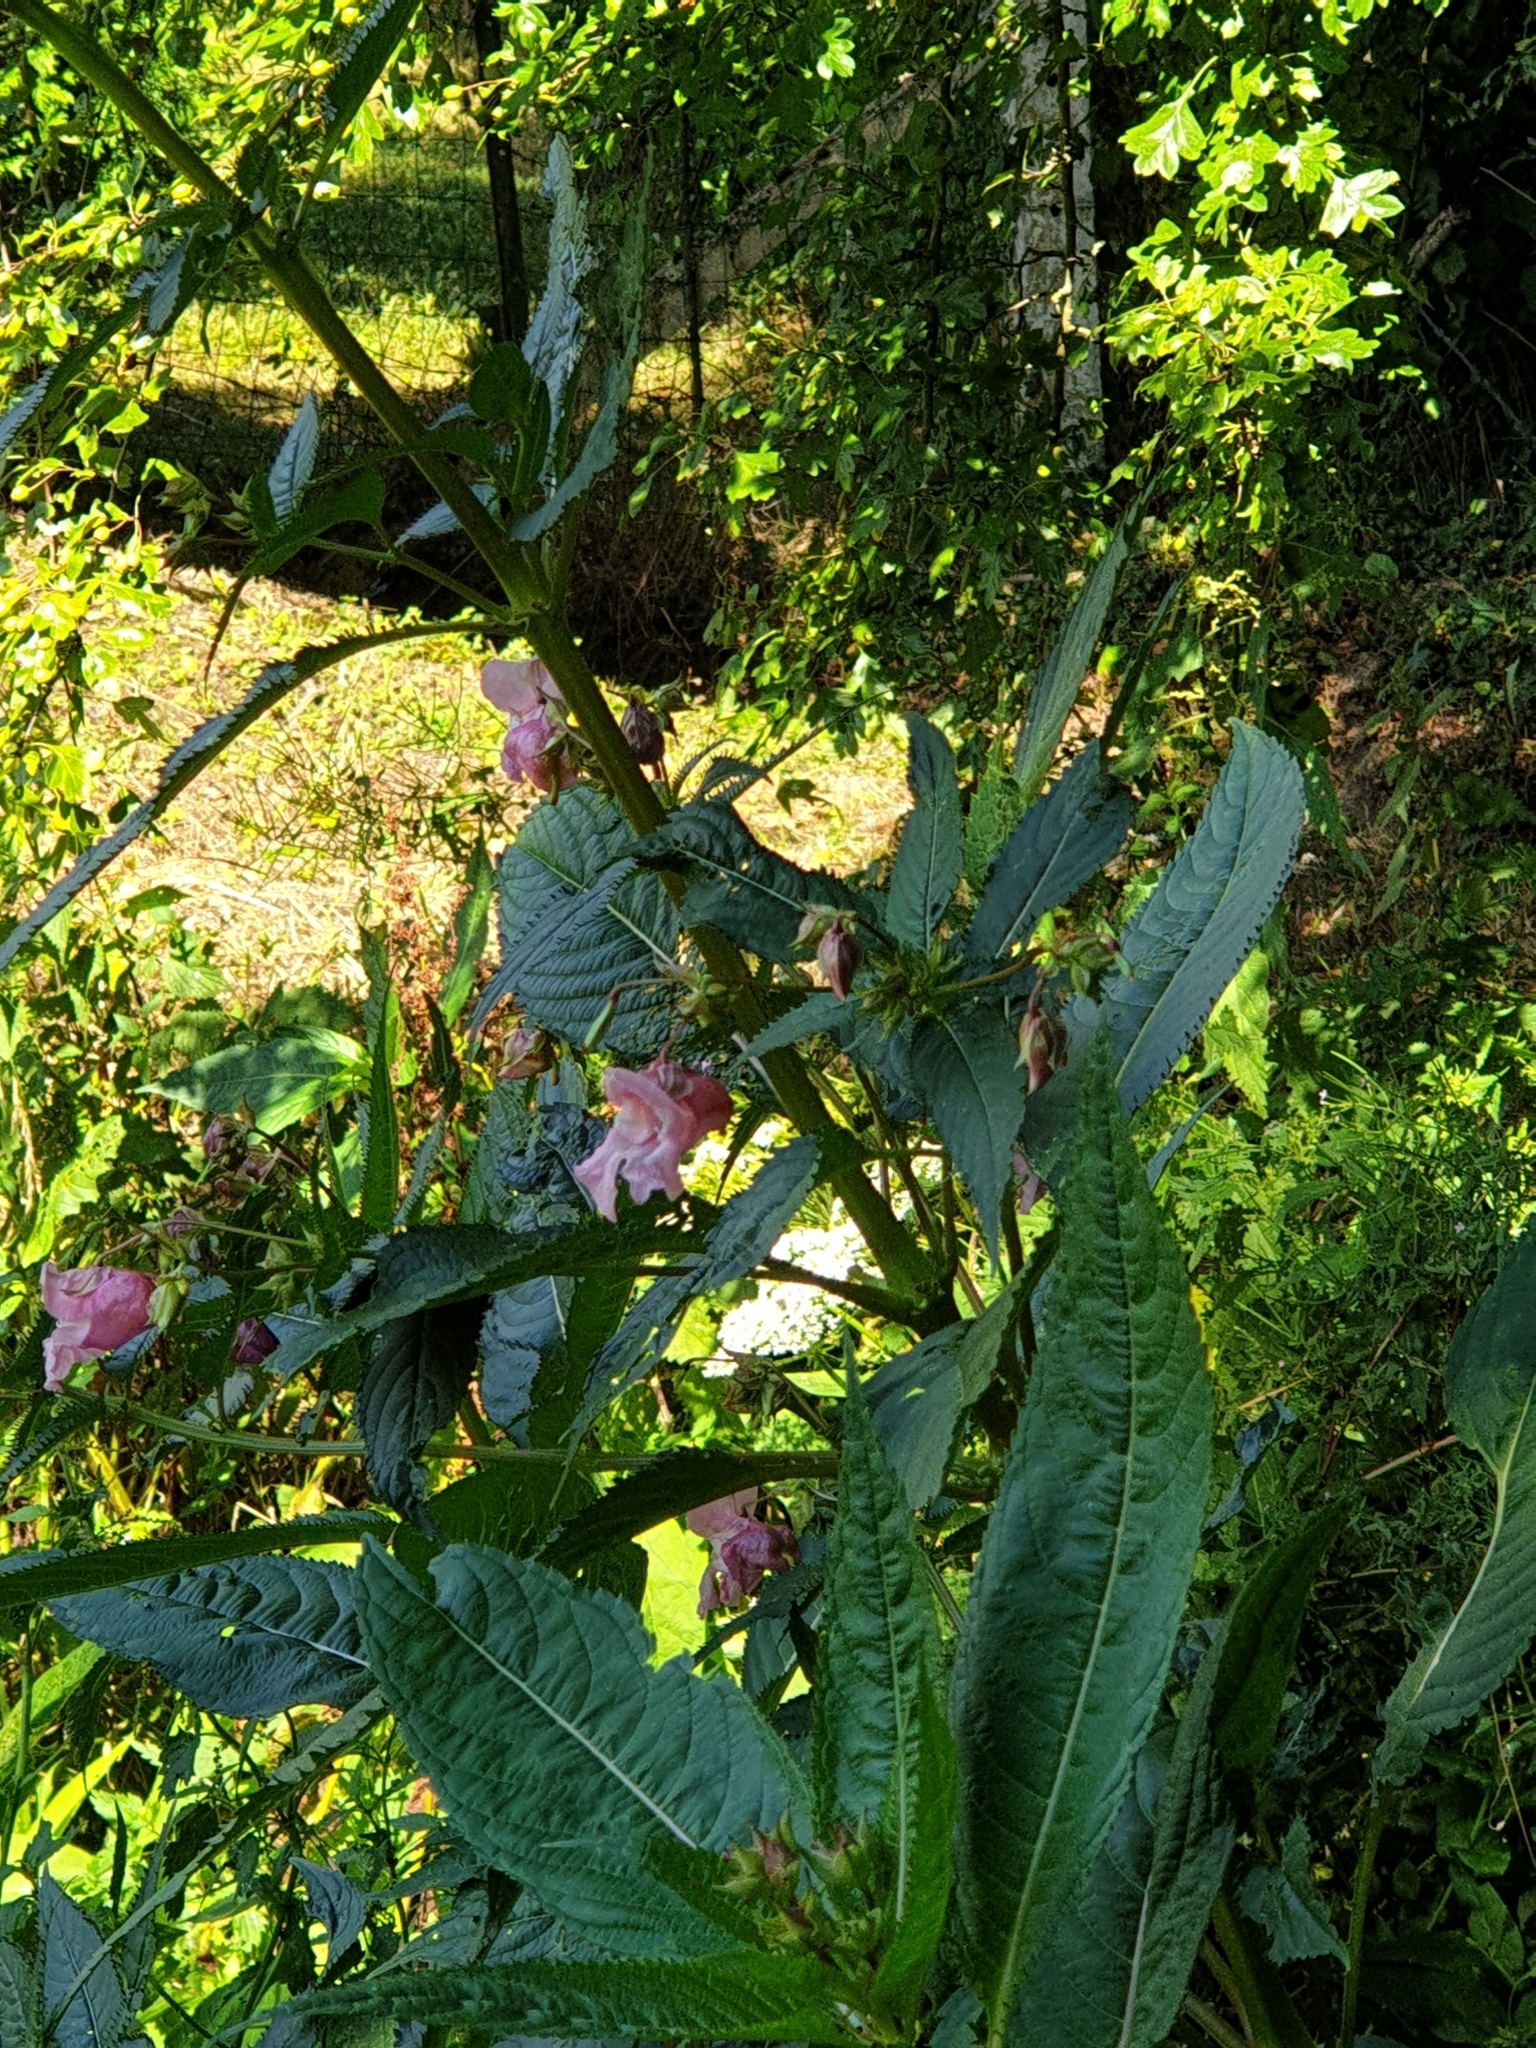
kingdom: Plantae
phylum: Tracheophyta
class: Magnoliopsida
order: Ericales
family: Balsaminaceae
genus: Impatiens
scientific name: Impatiens glandulifera
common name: Himalayan balsam
